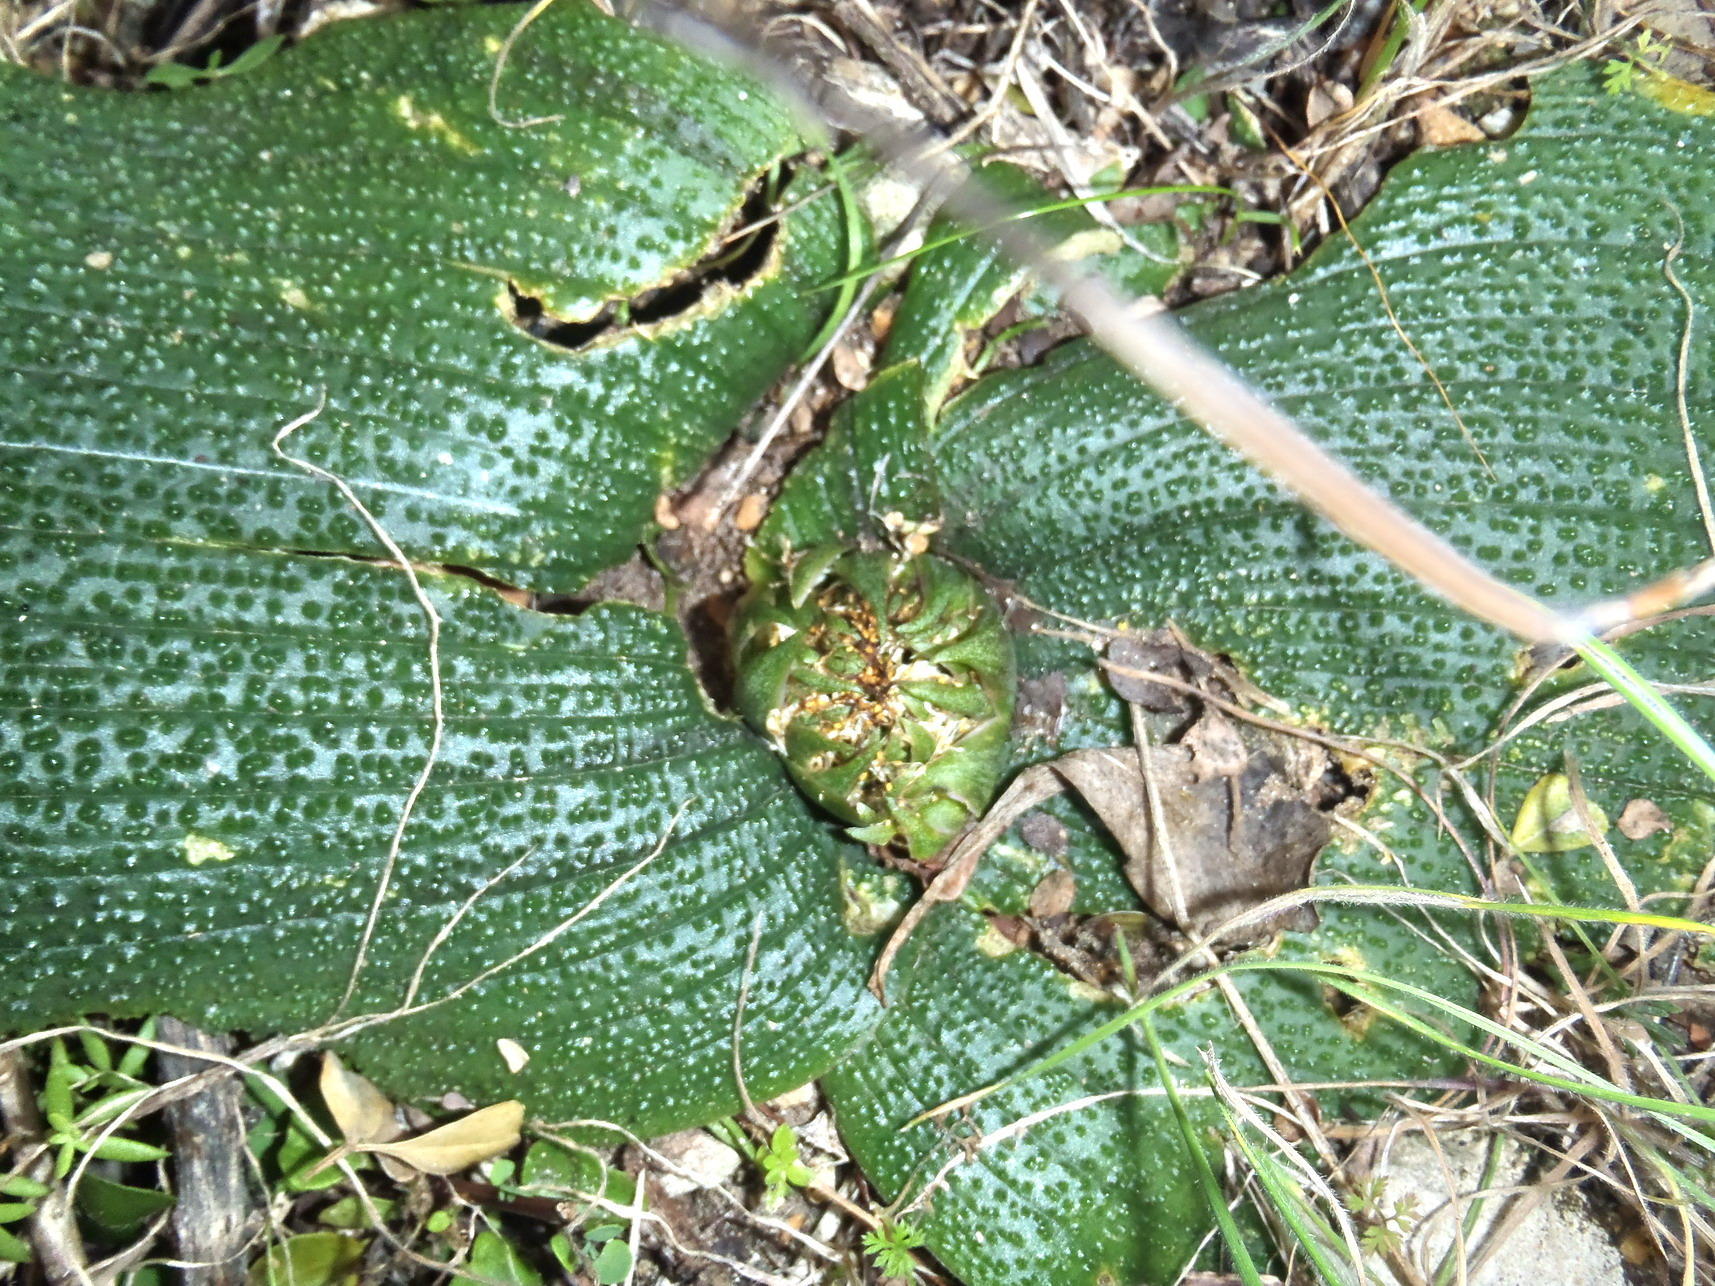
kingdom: Plantae
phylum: Tracheophyta
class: Liliopsida
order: Asparagales
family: Asparagaceae
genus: Massonia
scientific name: Massonia longipes
